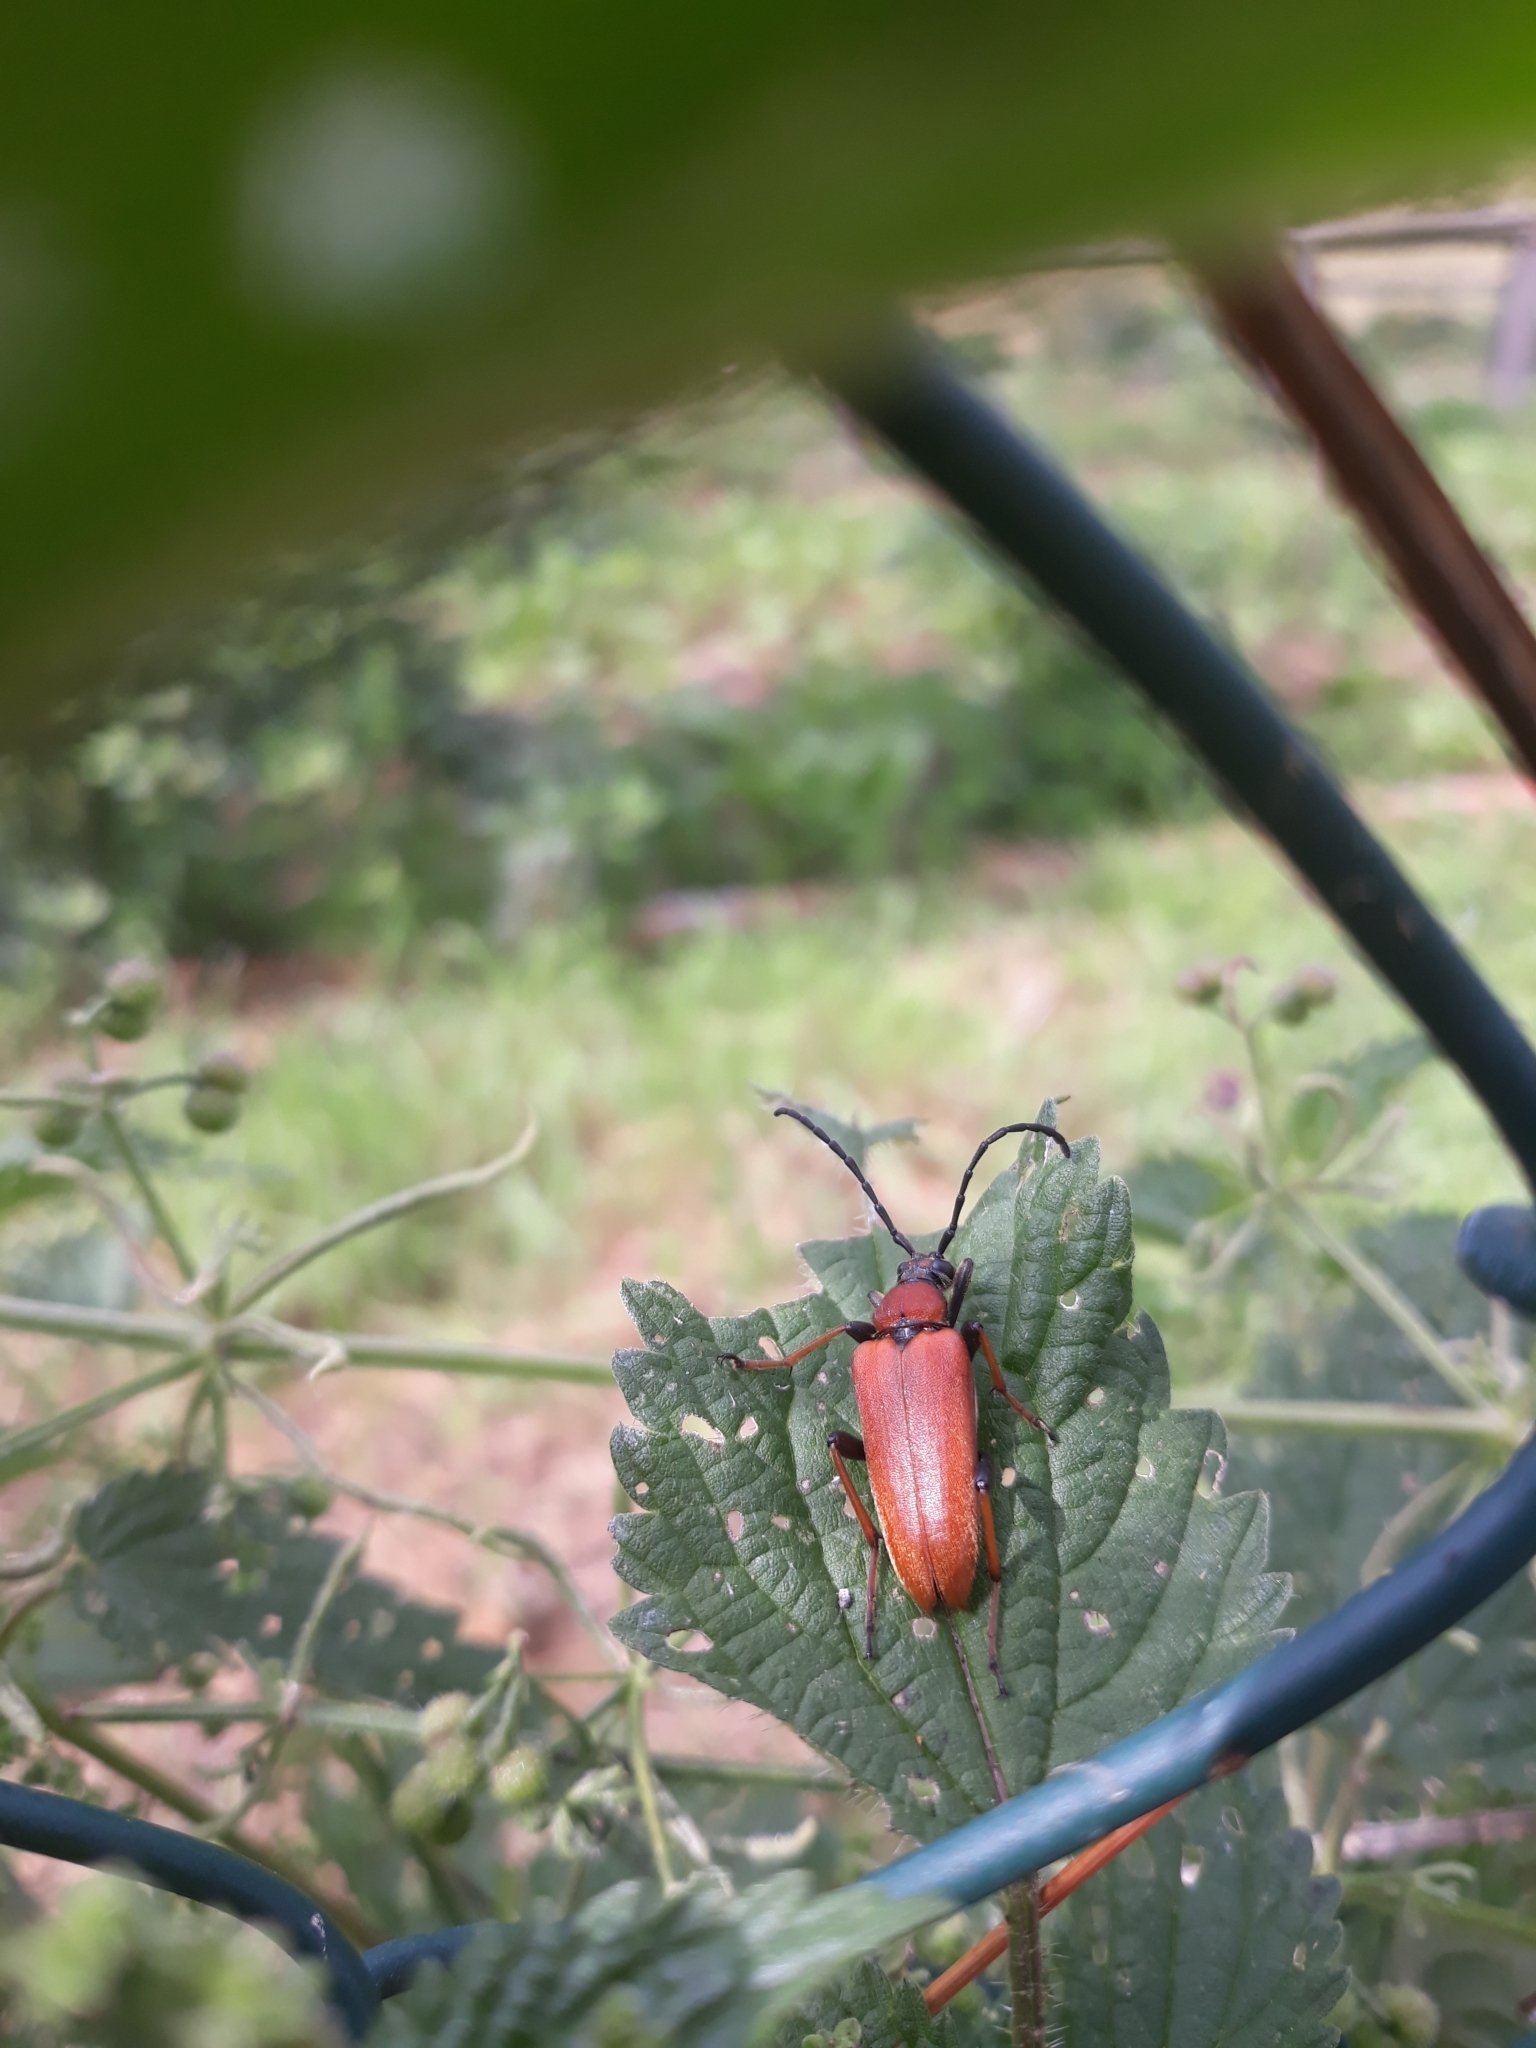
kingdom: Animalia
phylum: Arthropoda
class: Insecta
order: Coleoptera
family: Cerambycidae
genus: Stictoleptura
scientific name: Stictoleptura rubra
